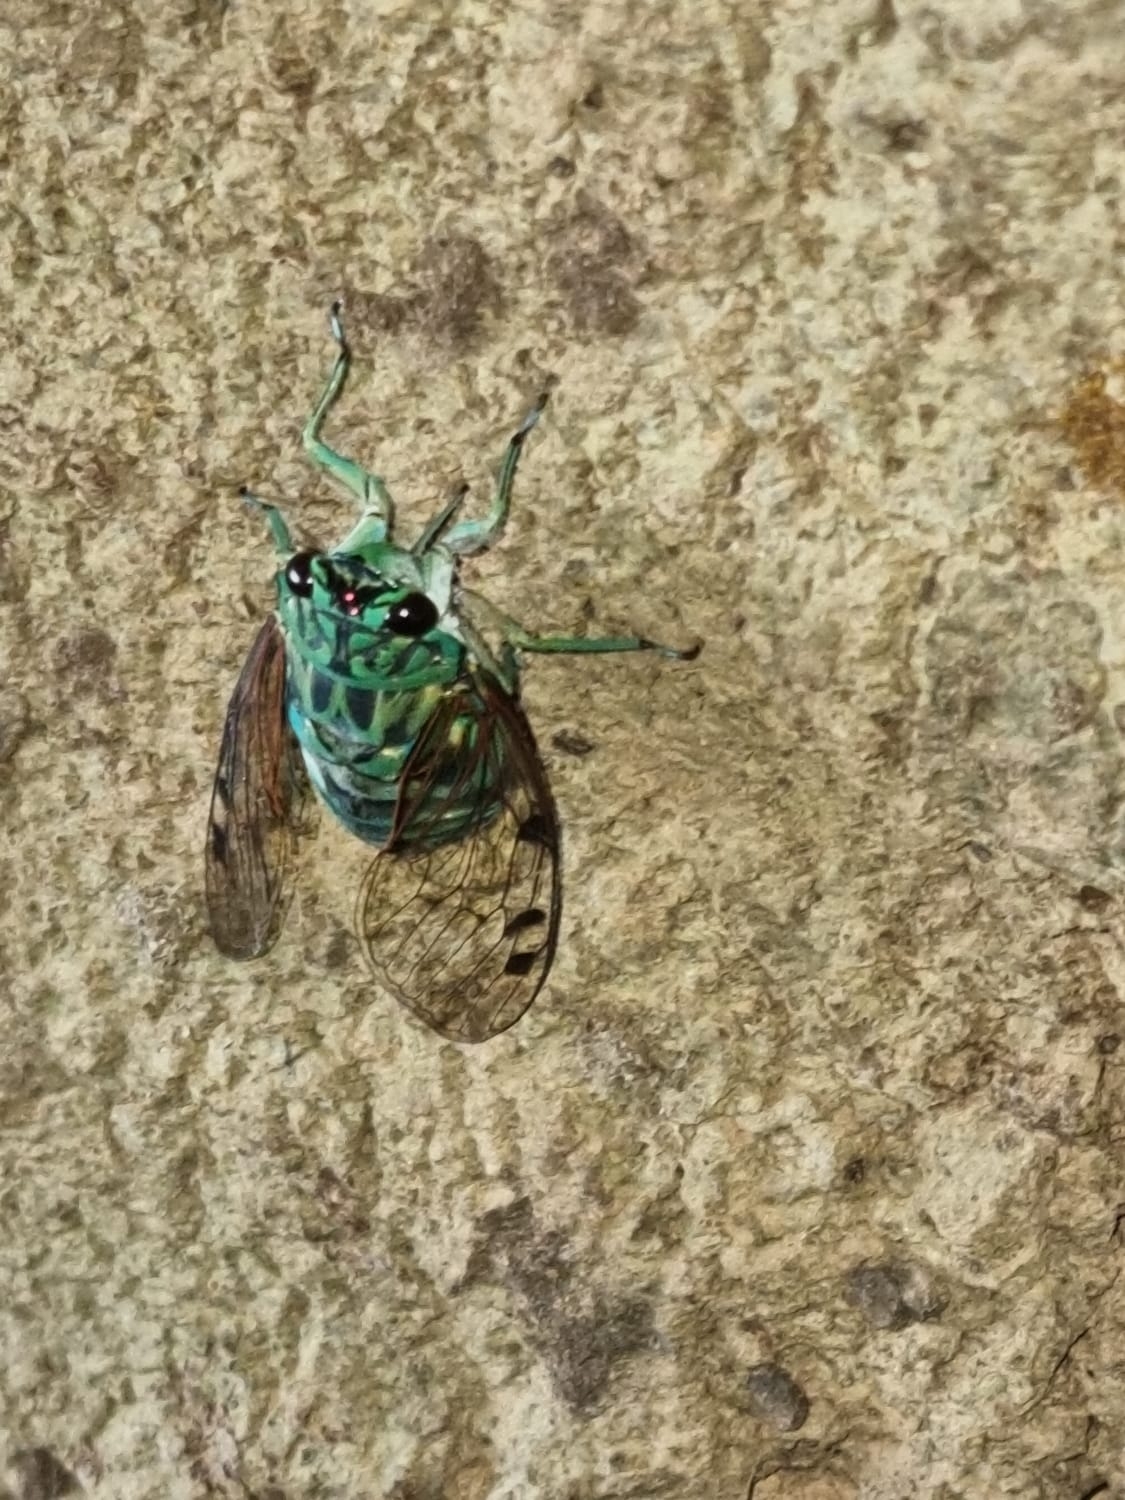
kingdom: Animalia
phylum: Arthropoda
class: Insecta
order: Hemiptera
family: Cicadidae
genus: Zammara
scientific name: Zammara smaragdula
